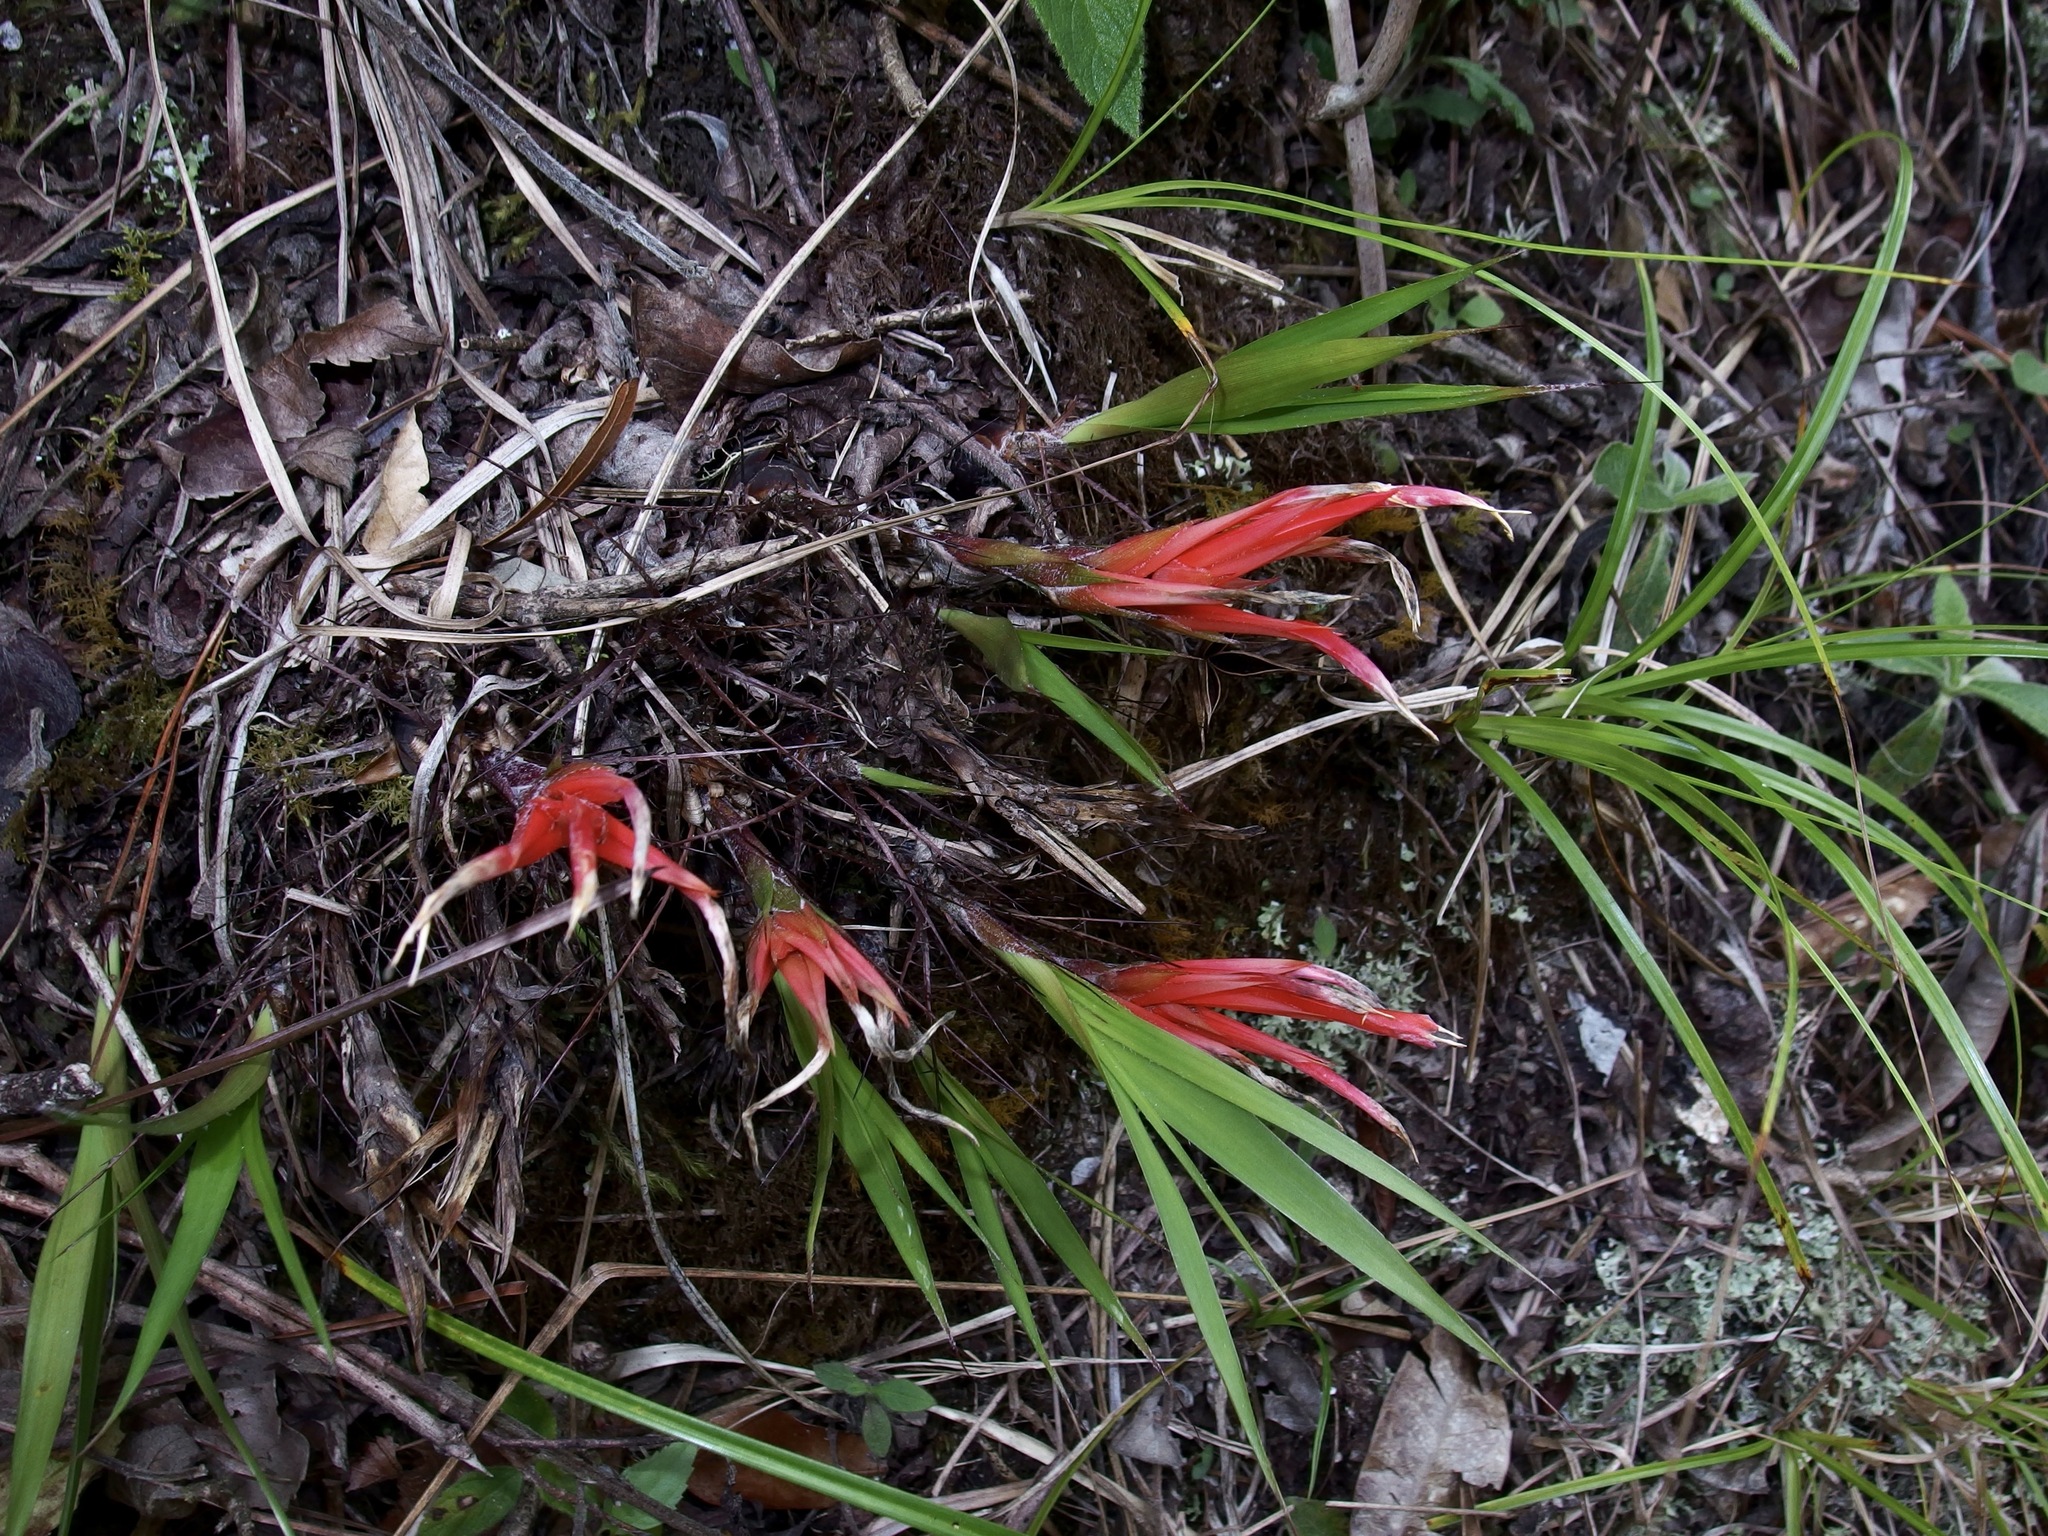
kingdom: Plantae
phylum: Tracheophyta
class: Liliopsida
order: Poales
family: Bromeliaceae
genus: Pitcairnia
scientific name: Pitcairnia heterophylla
